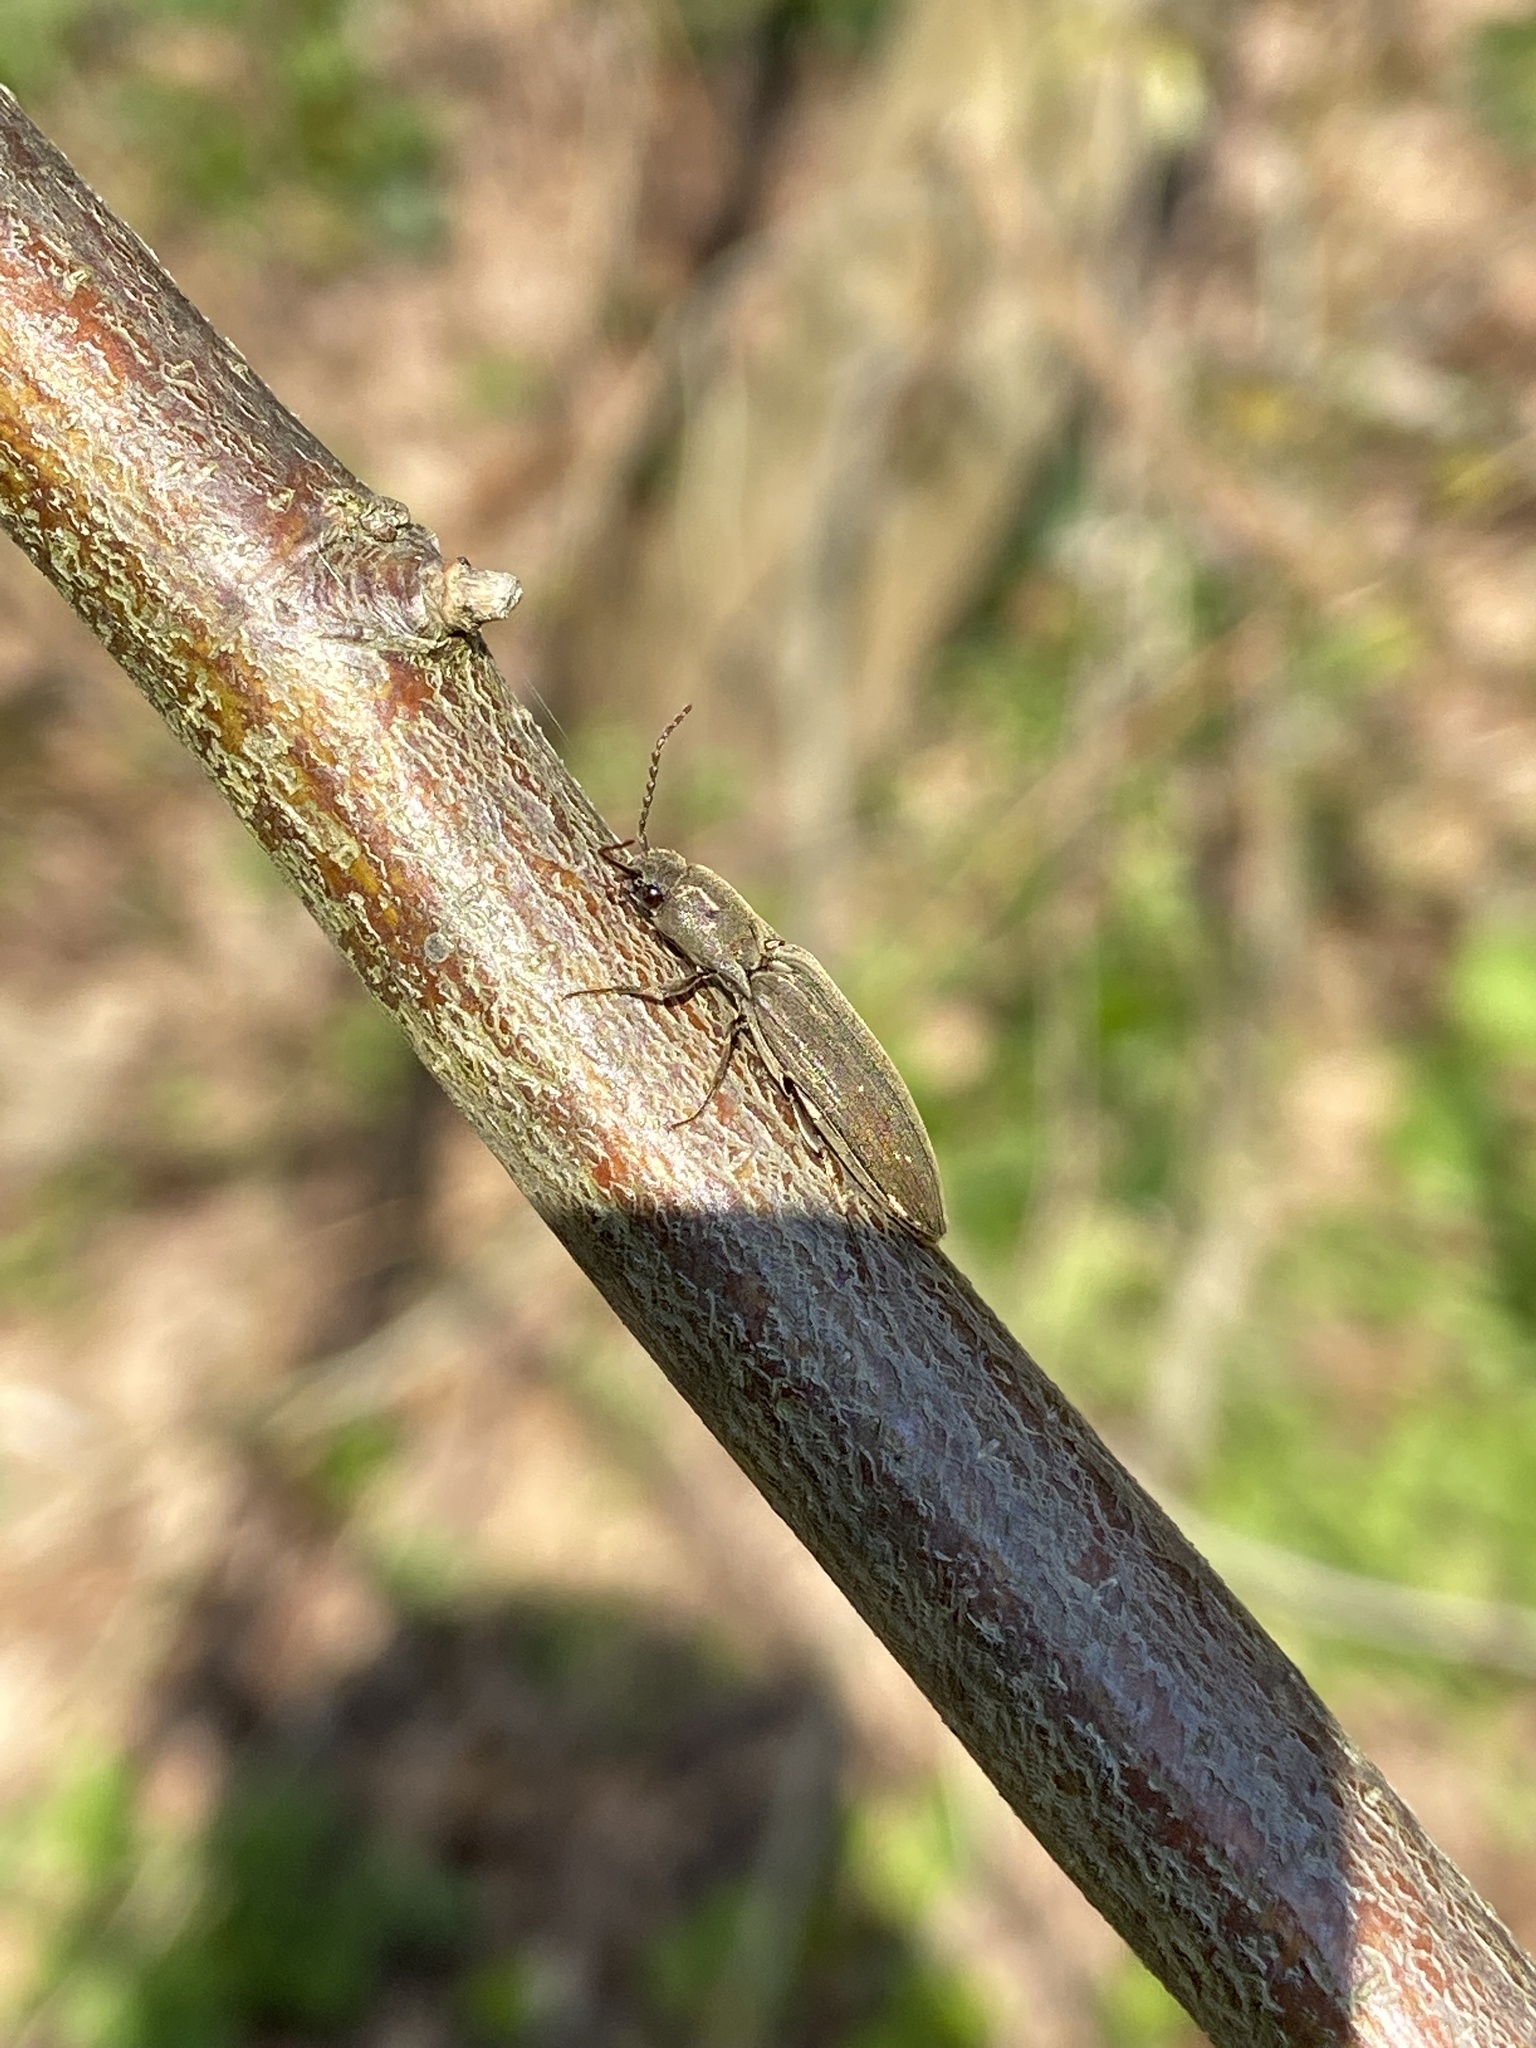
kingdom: Animalia
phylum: Arthropoda
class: Insecta
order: Coleoptera
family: Elateridae
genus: Agriotes
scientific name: Agriotes pilosellus
